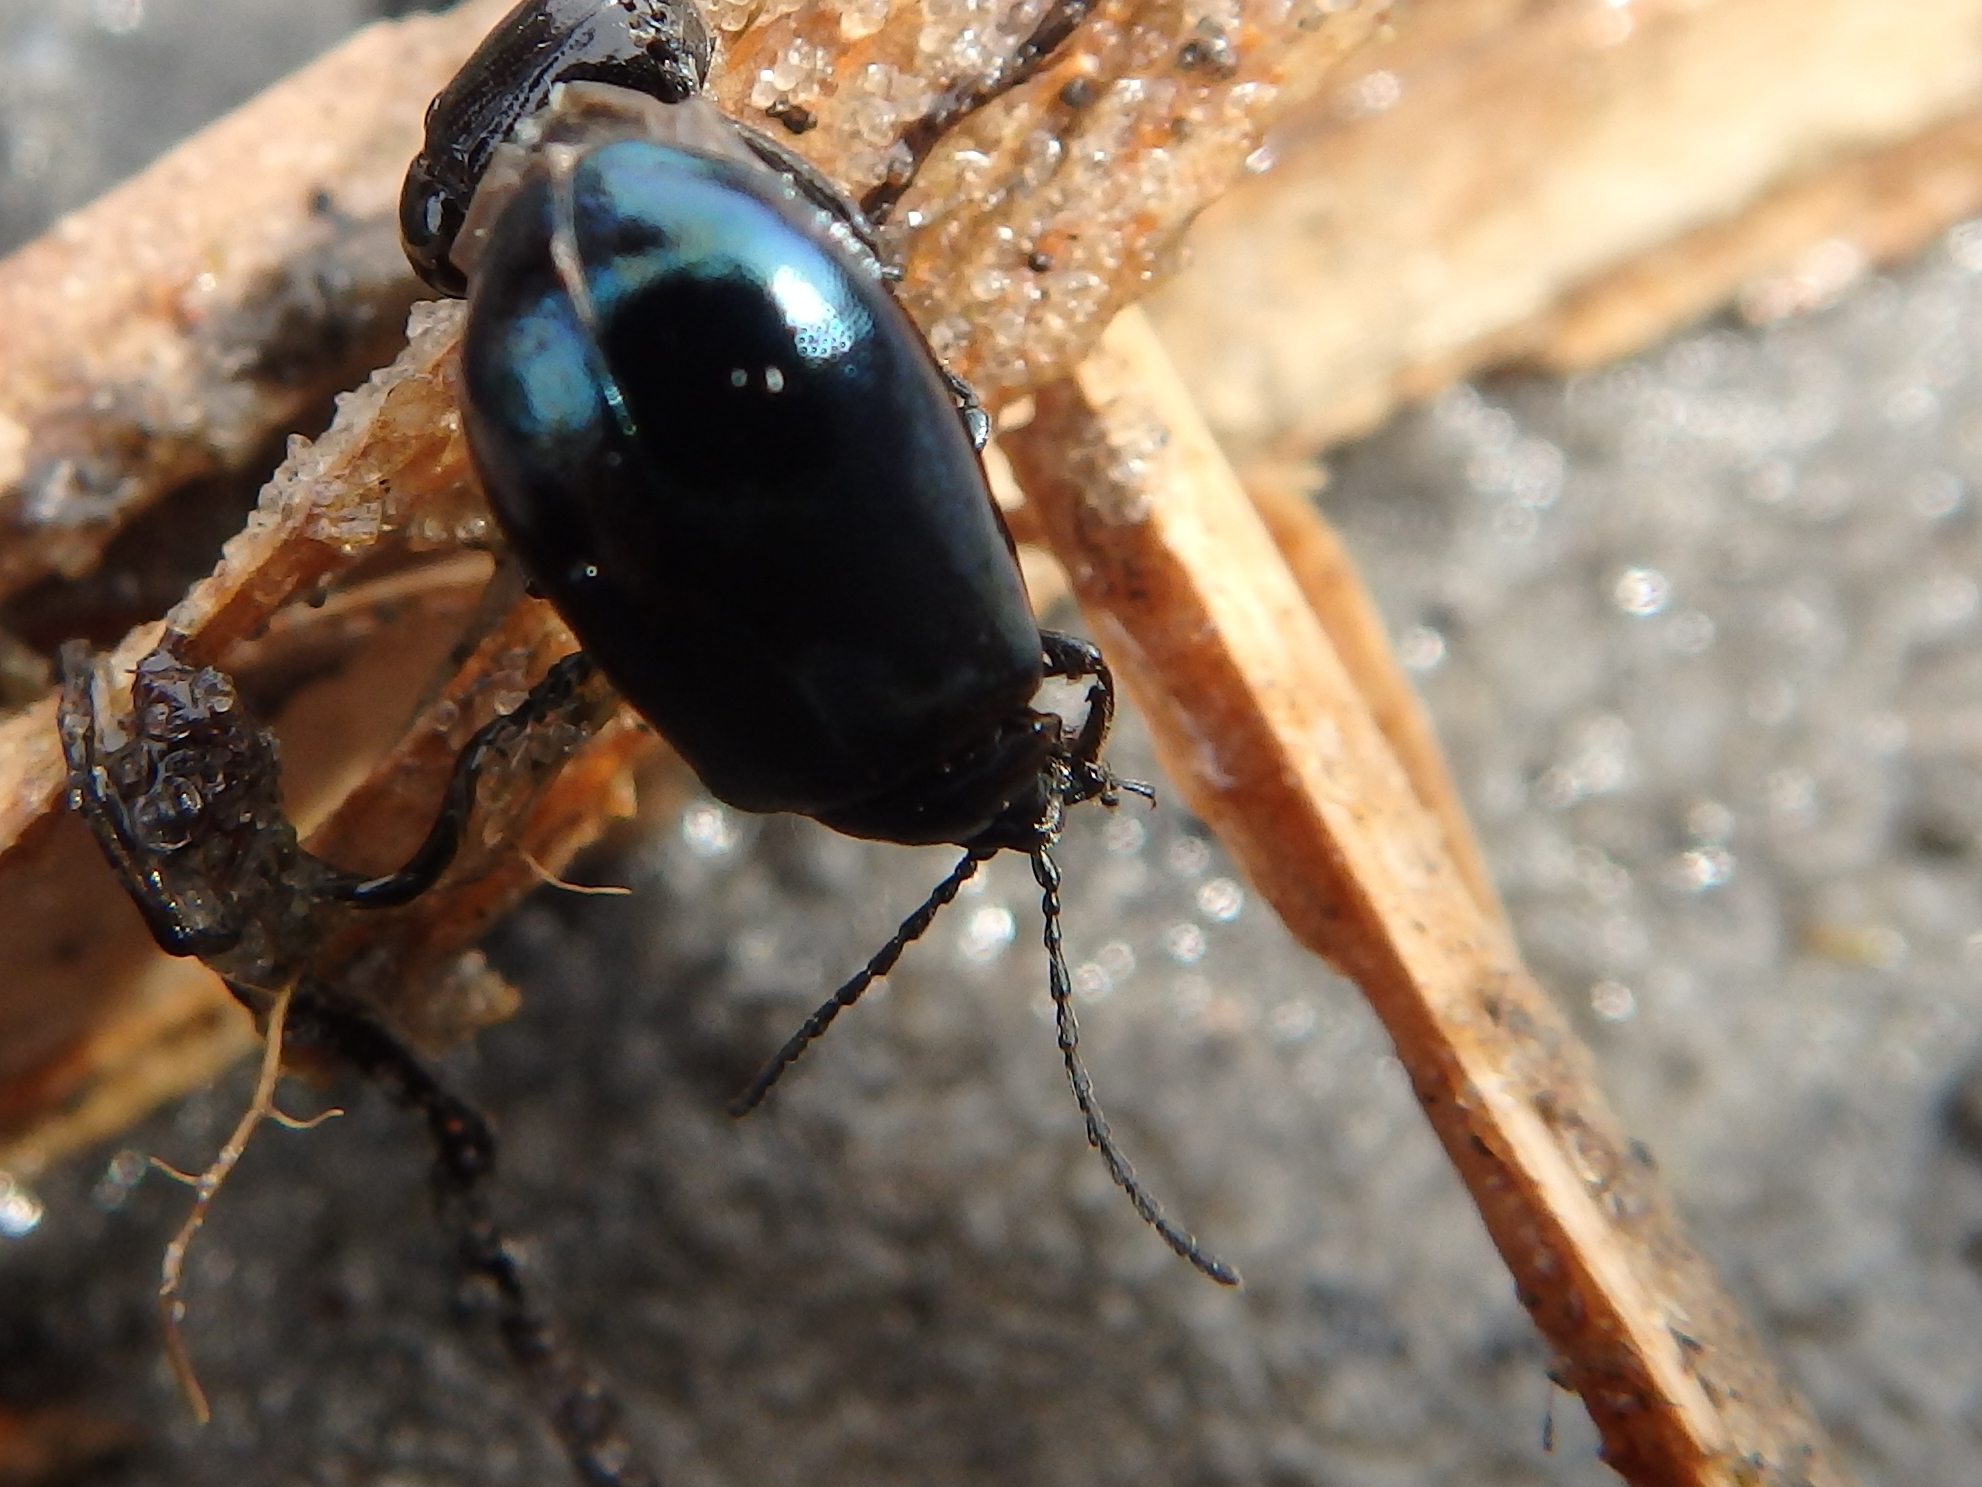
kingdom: Animalia
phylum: Arthropoda
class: Insecta
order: Coleoptera
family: Chrysomelidae
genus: Agelastica
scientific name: Agelastica alni
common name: Alder leaf beetle
